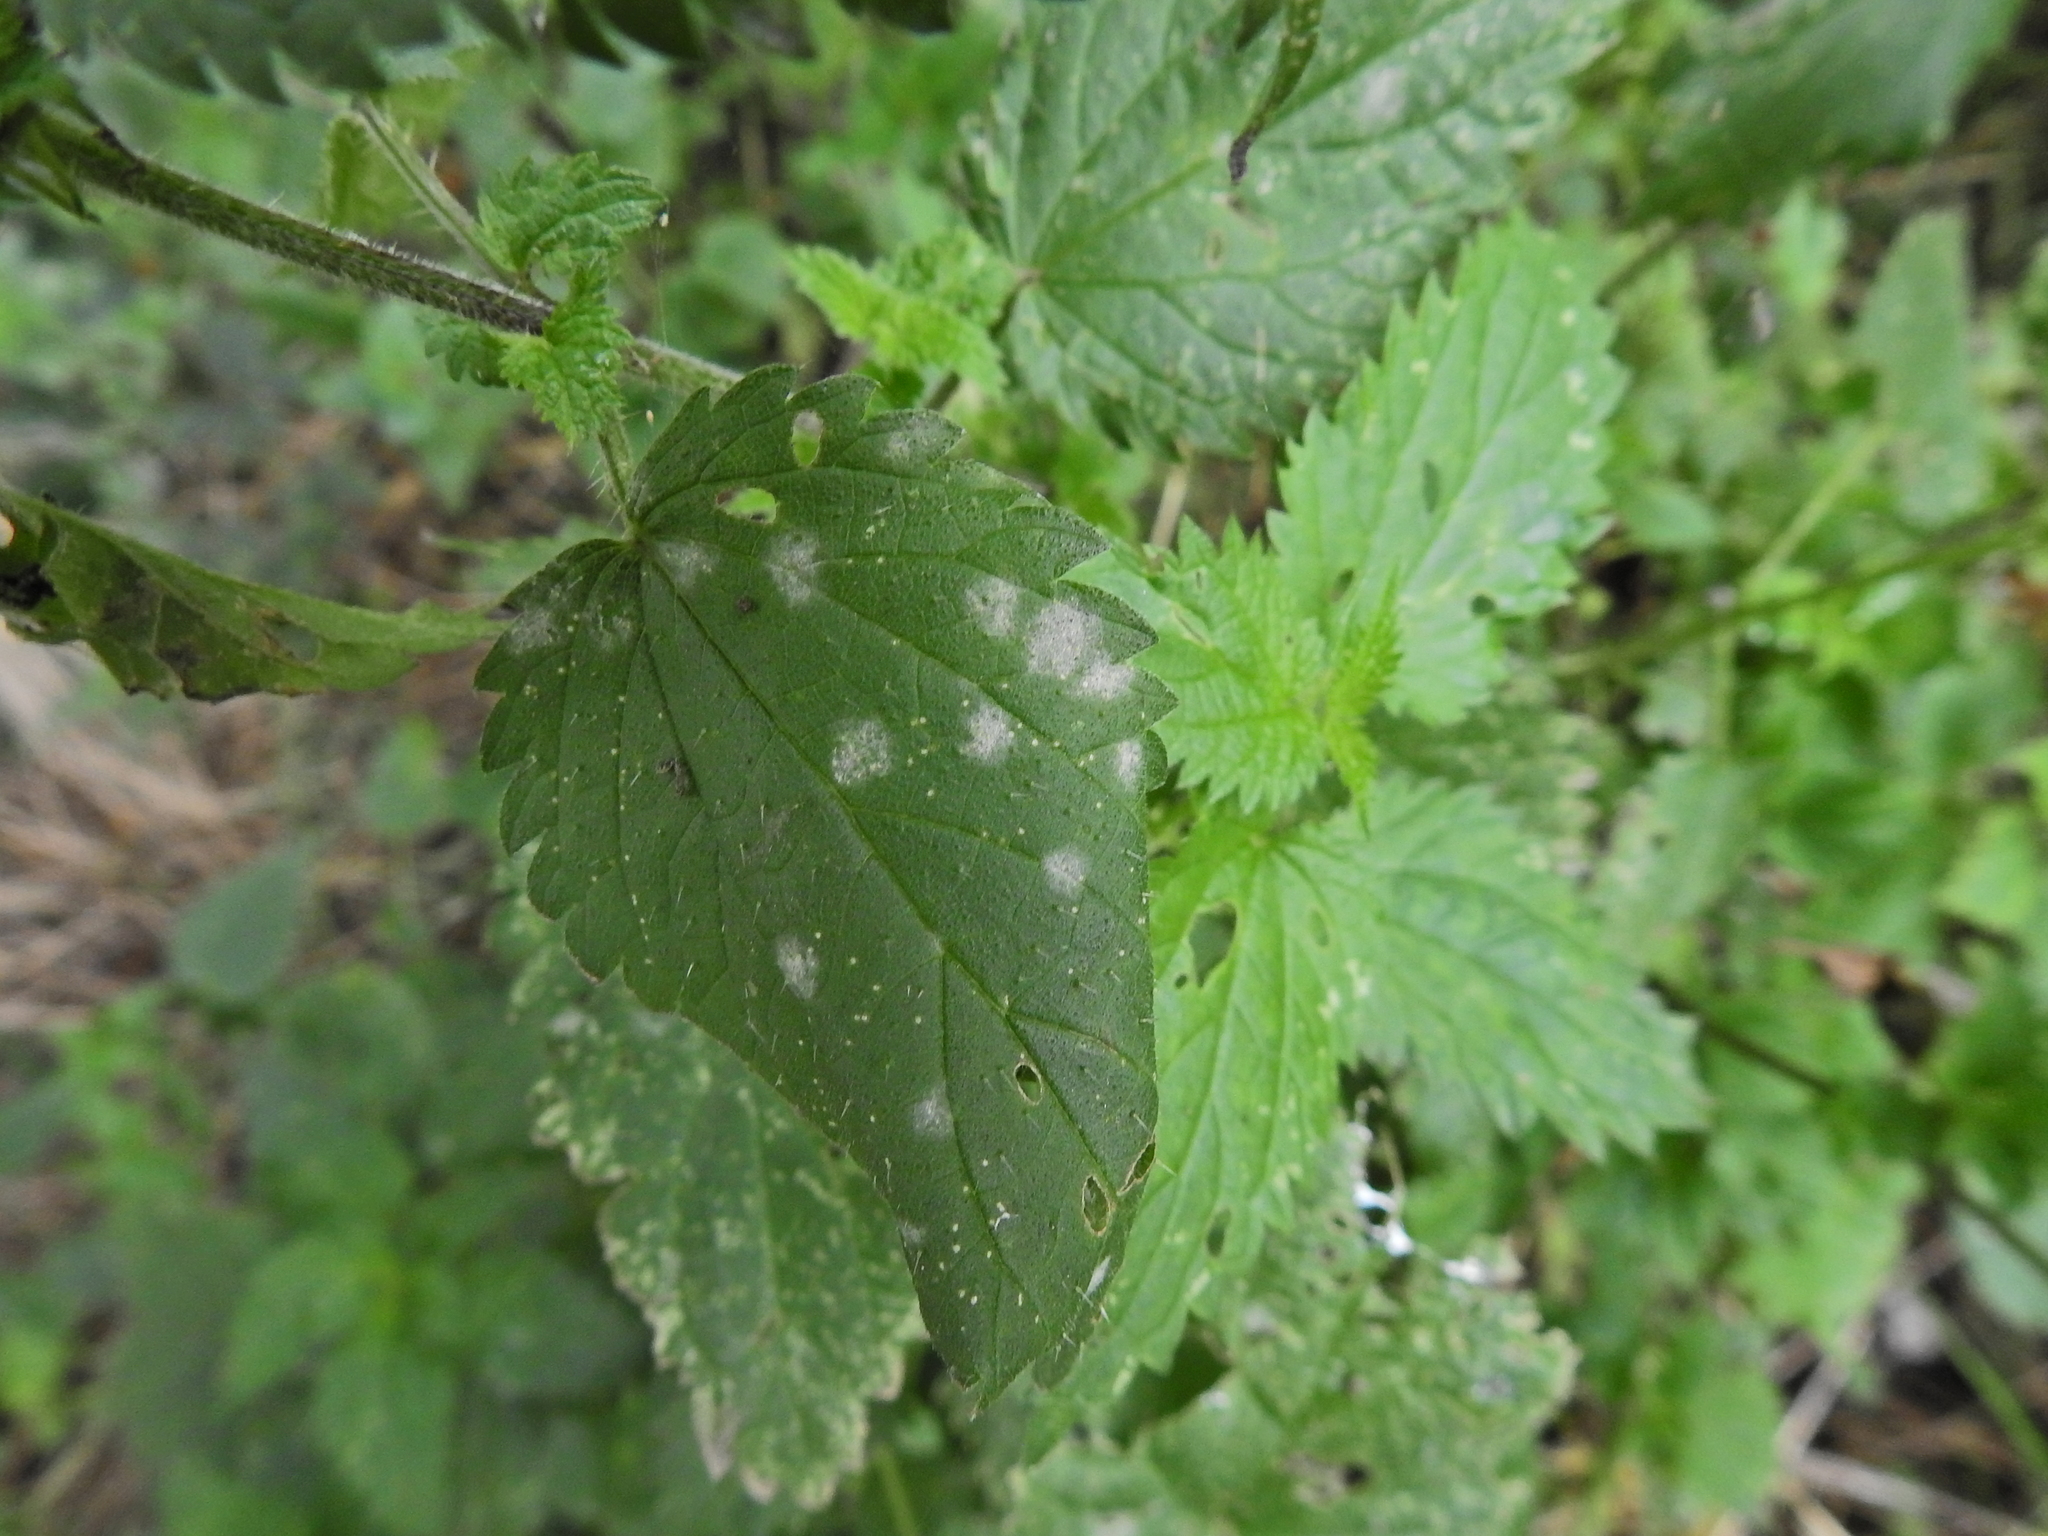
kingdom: Fungi
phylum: Ascomycota
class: Leotiomycetes
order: Helotiales
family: Erysiphaceae
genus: Erysiphe
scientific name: Erysiphe urticae
